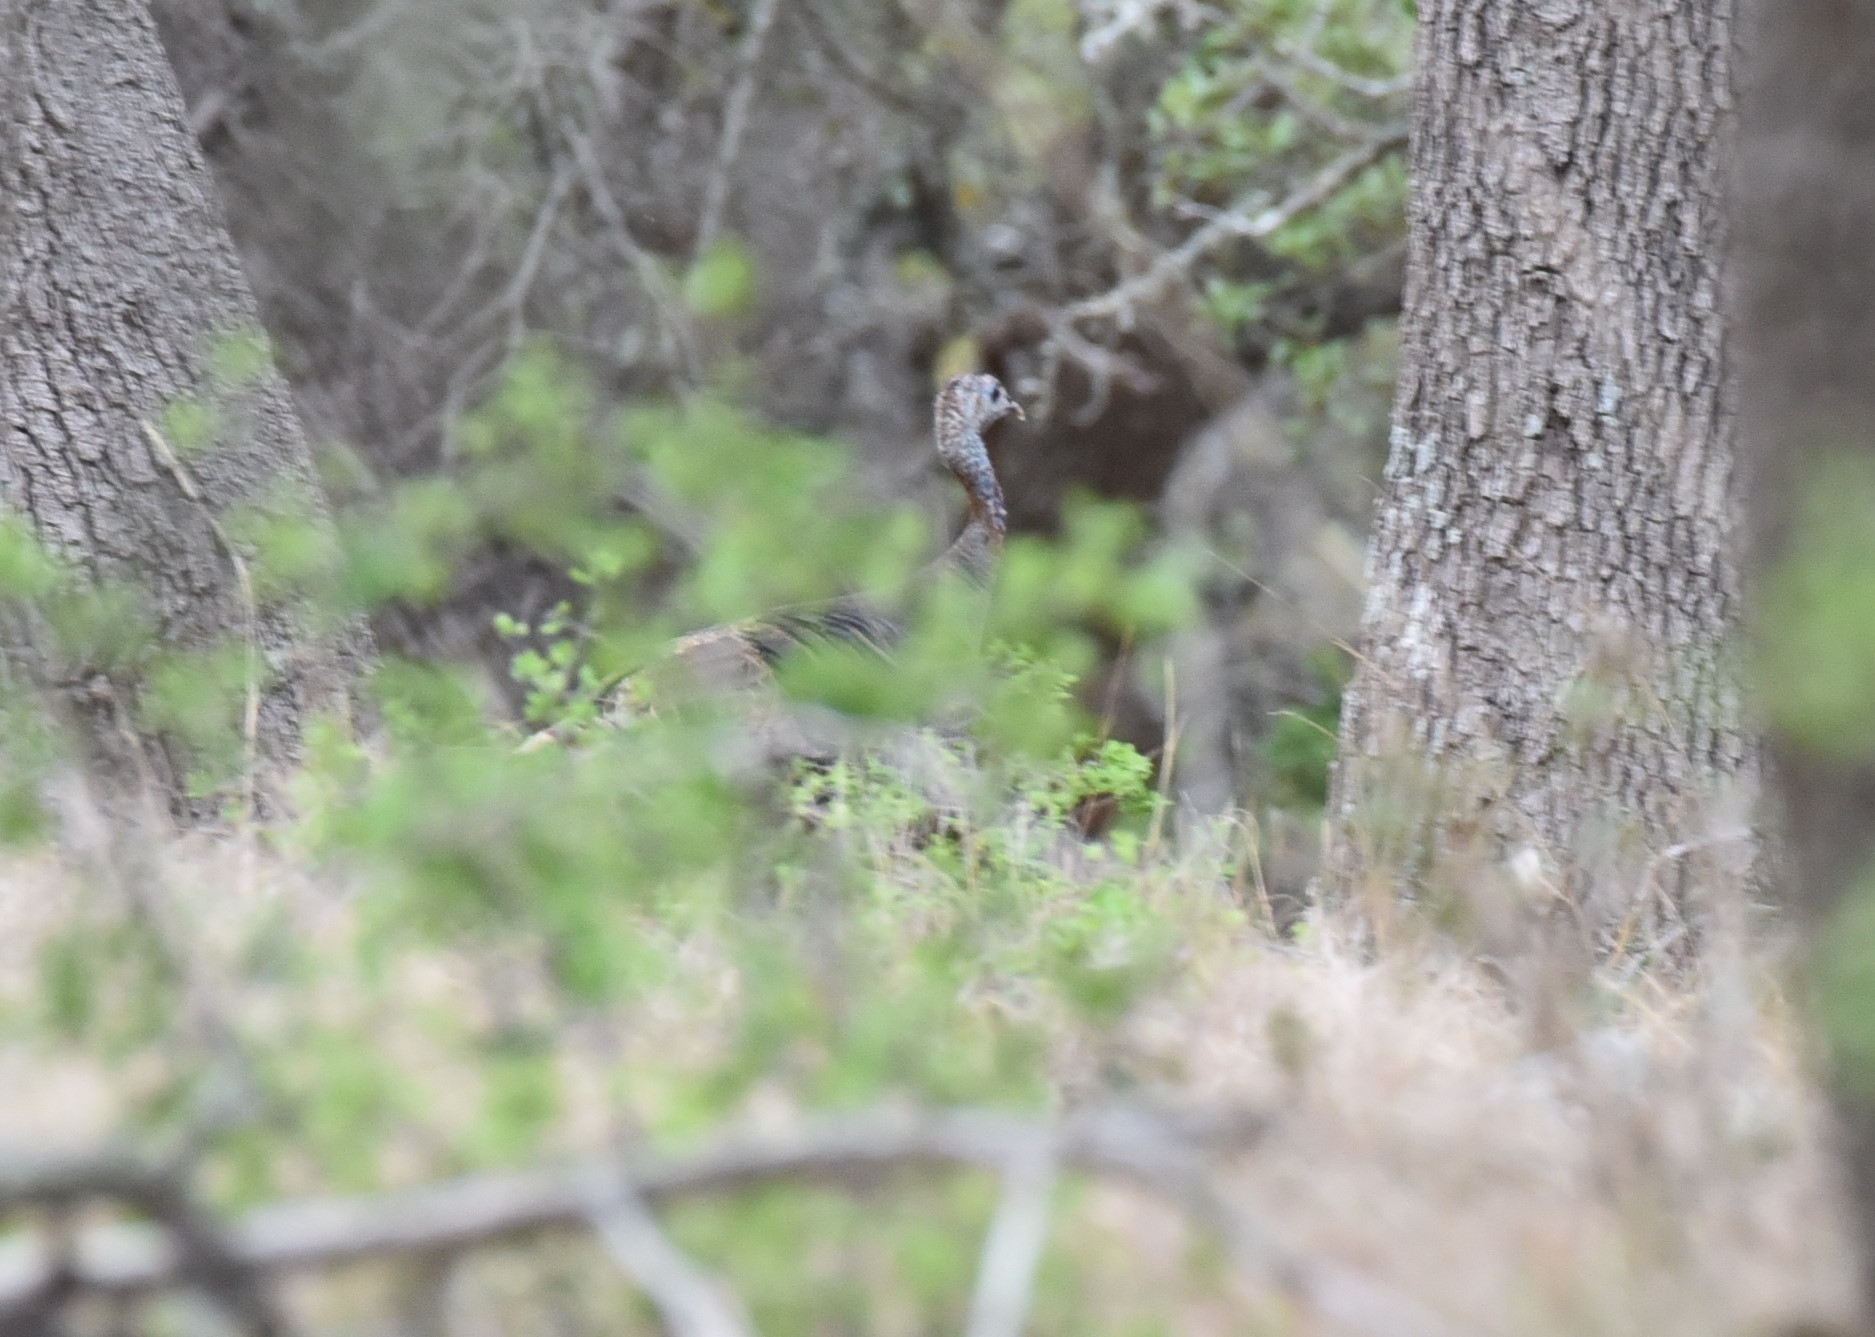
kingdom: Animalia
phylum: Chordata
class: Aves
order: Galliformes
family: Phasianidae
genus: Meleagris
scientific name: Meleagris gallopavo
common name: Wild turkey
